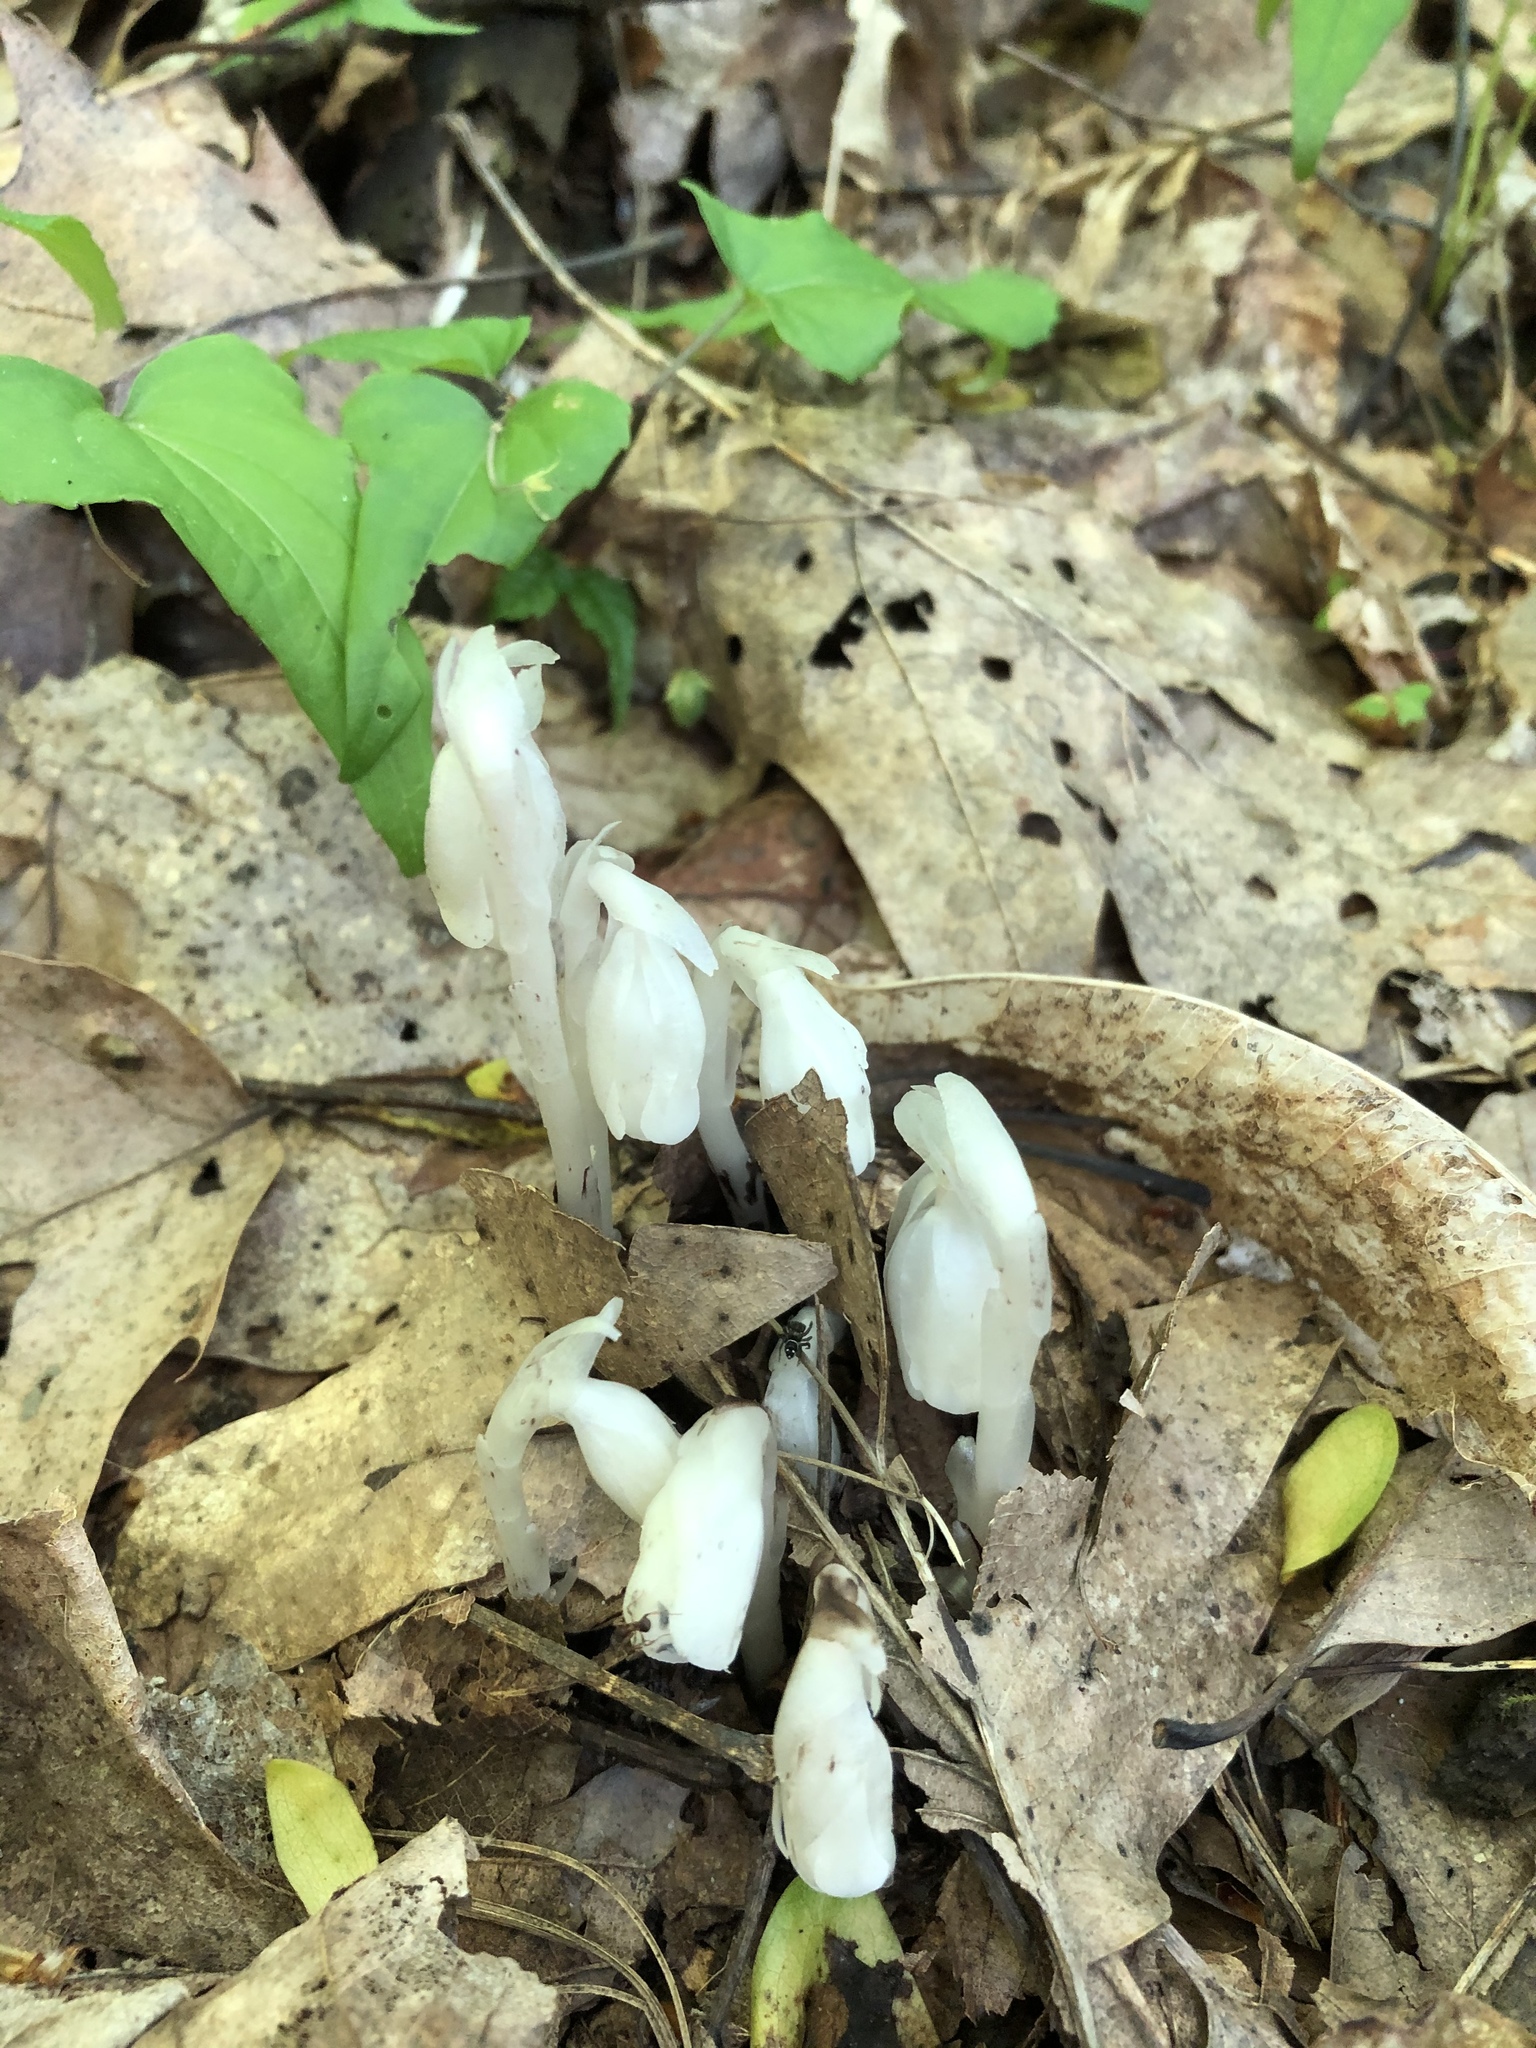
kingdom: Plantae
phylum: Tracheophyta
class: Magnoliopsida
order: Ericales
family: Ericaceae
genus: Monotropa
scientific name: Monotropa uniflora
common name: Convulsion root
